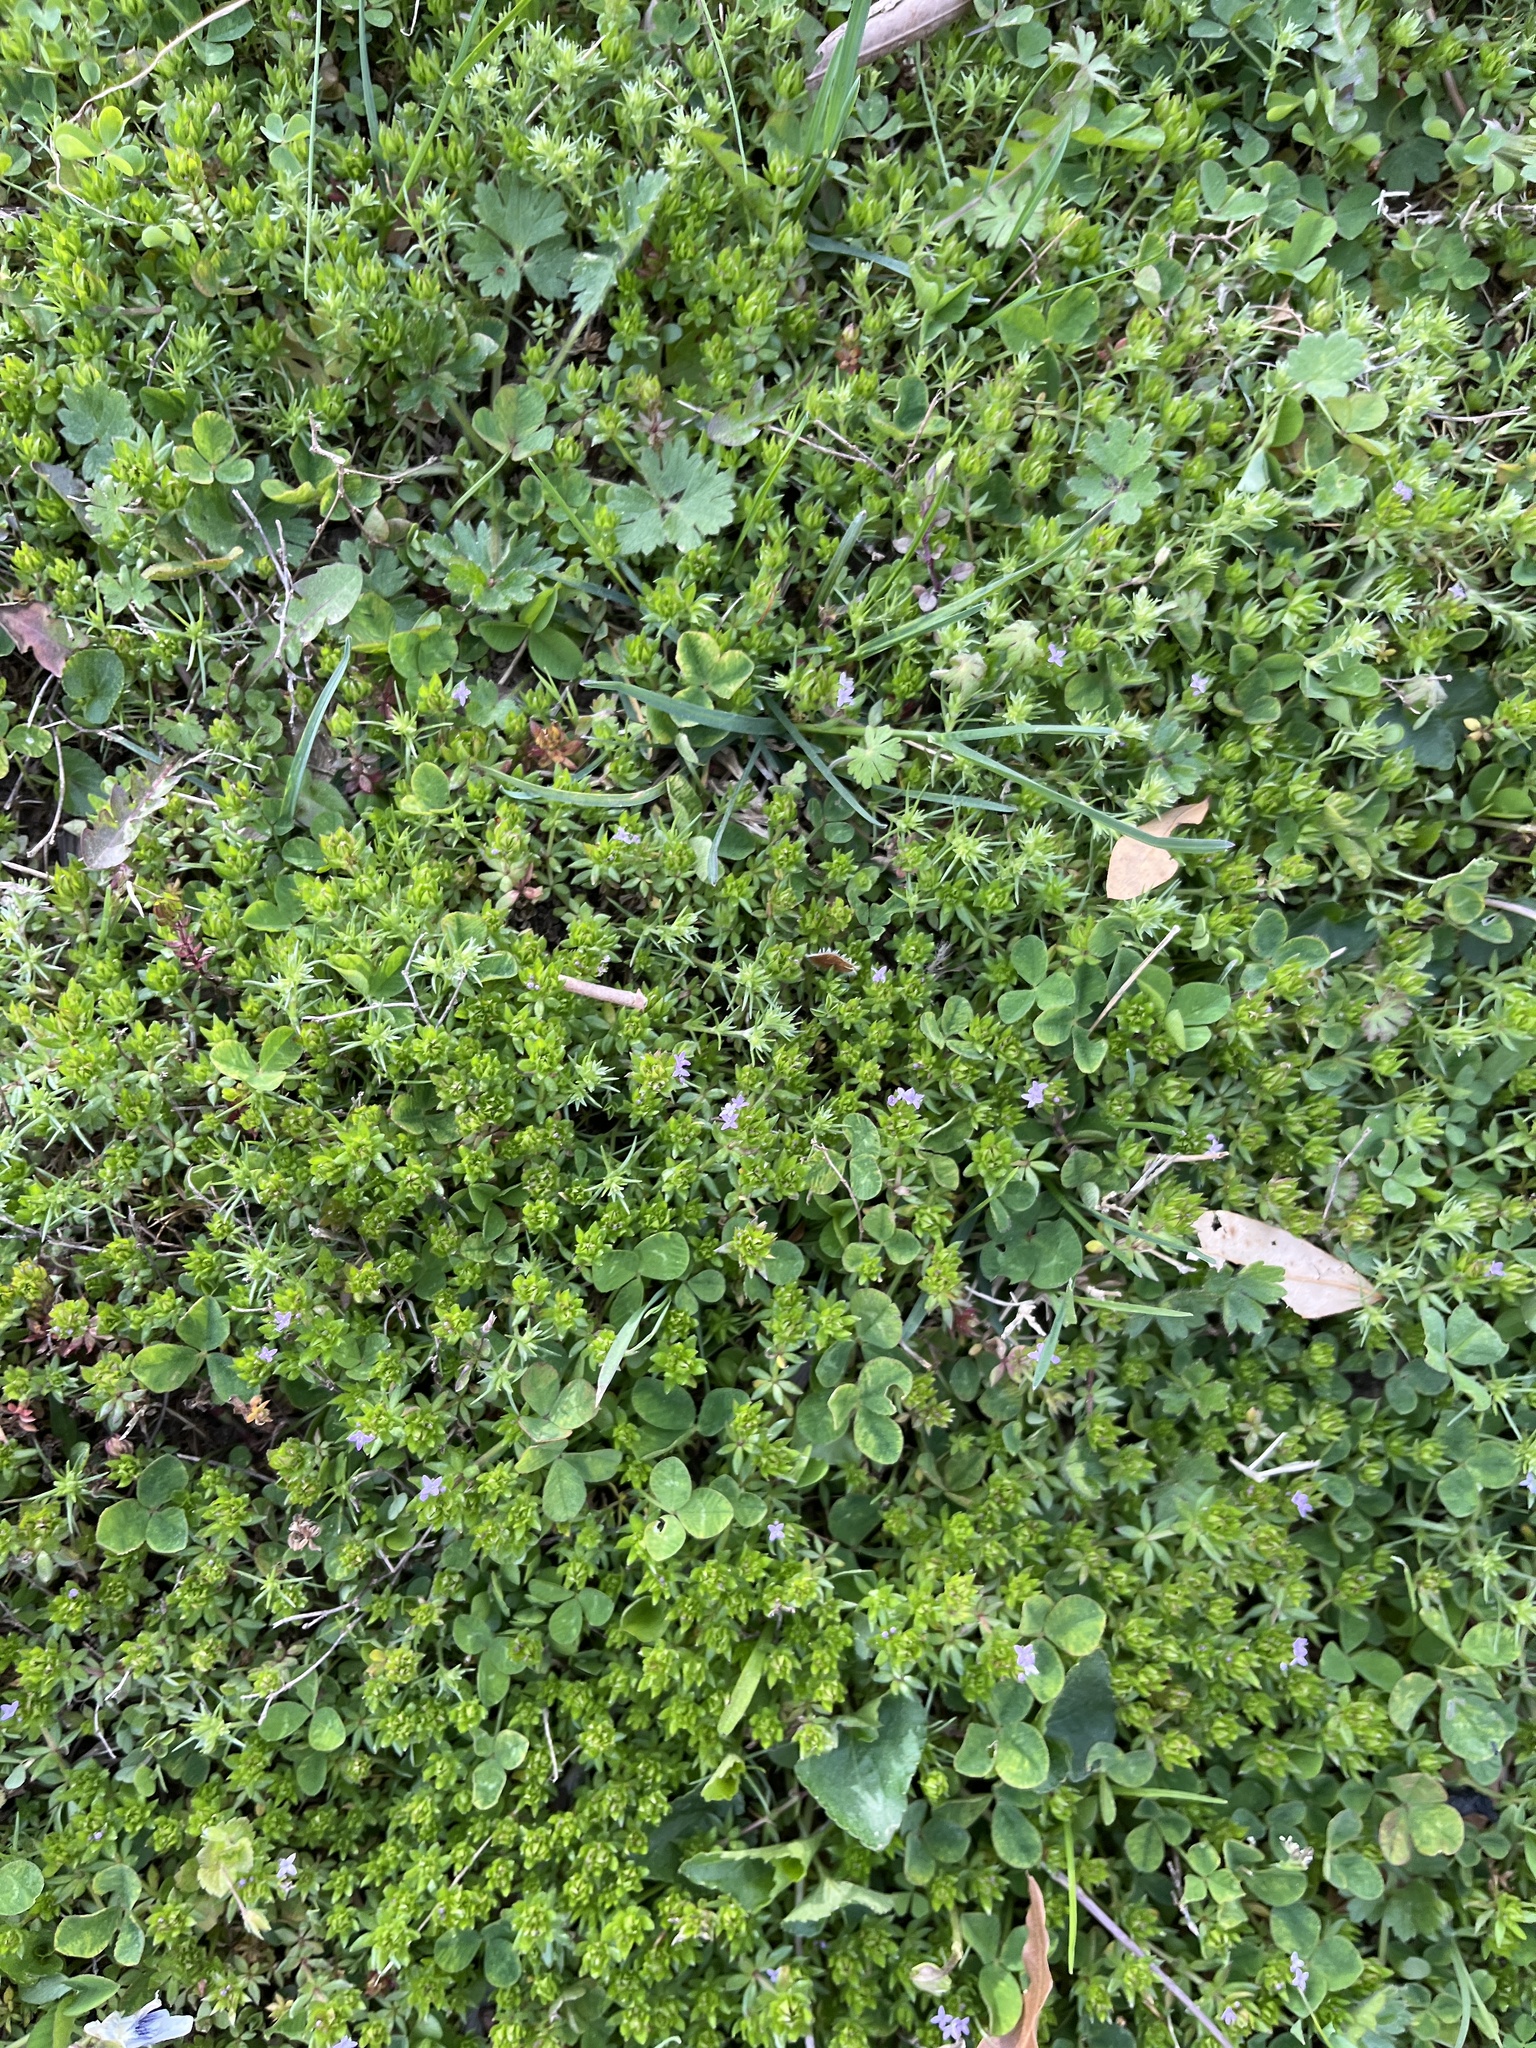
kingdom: Plantae
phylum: Tracheophyta
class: Magnoliopsida
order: Gentianales
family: Rubiaceae
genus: Sherardia
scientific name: Sherardia arvensis
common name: Field madder
